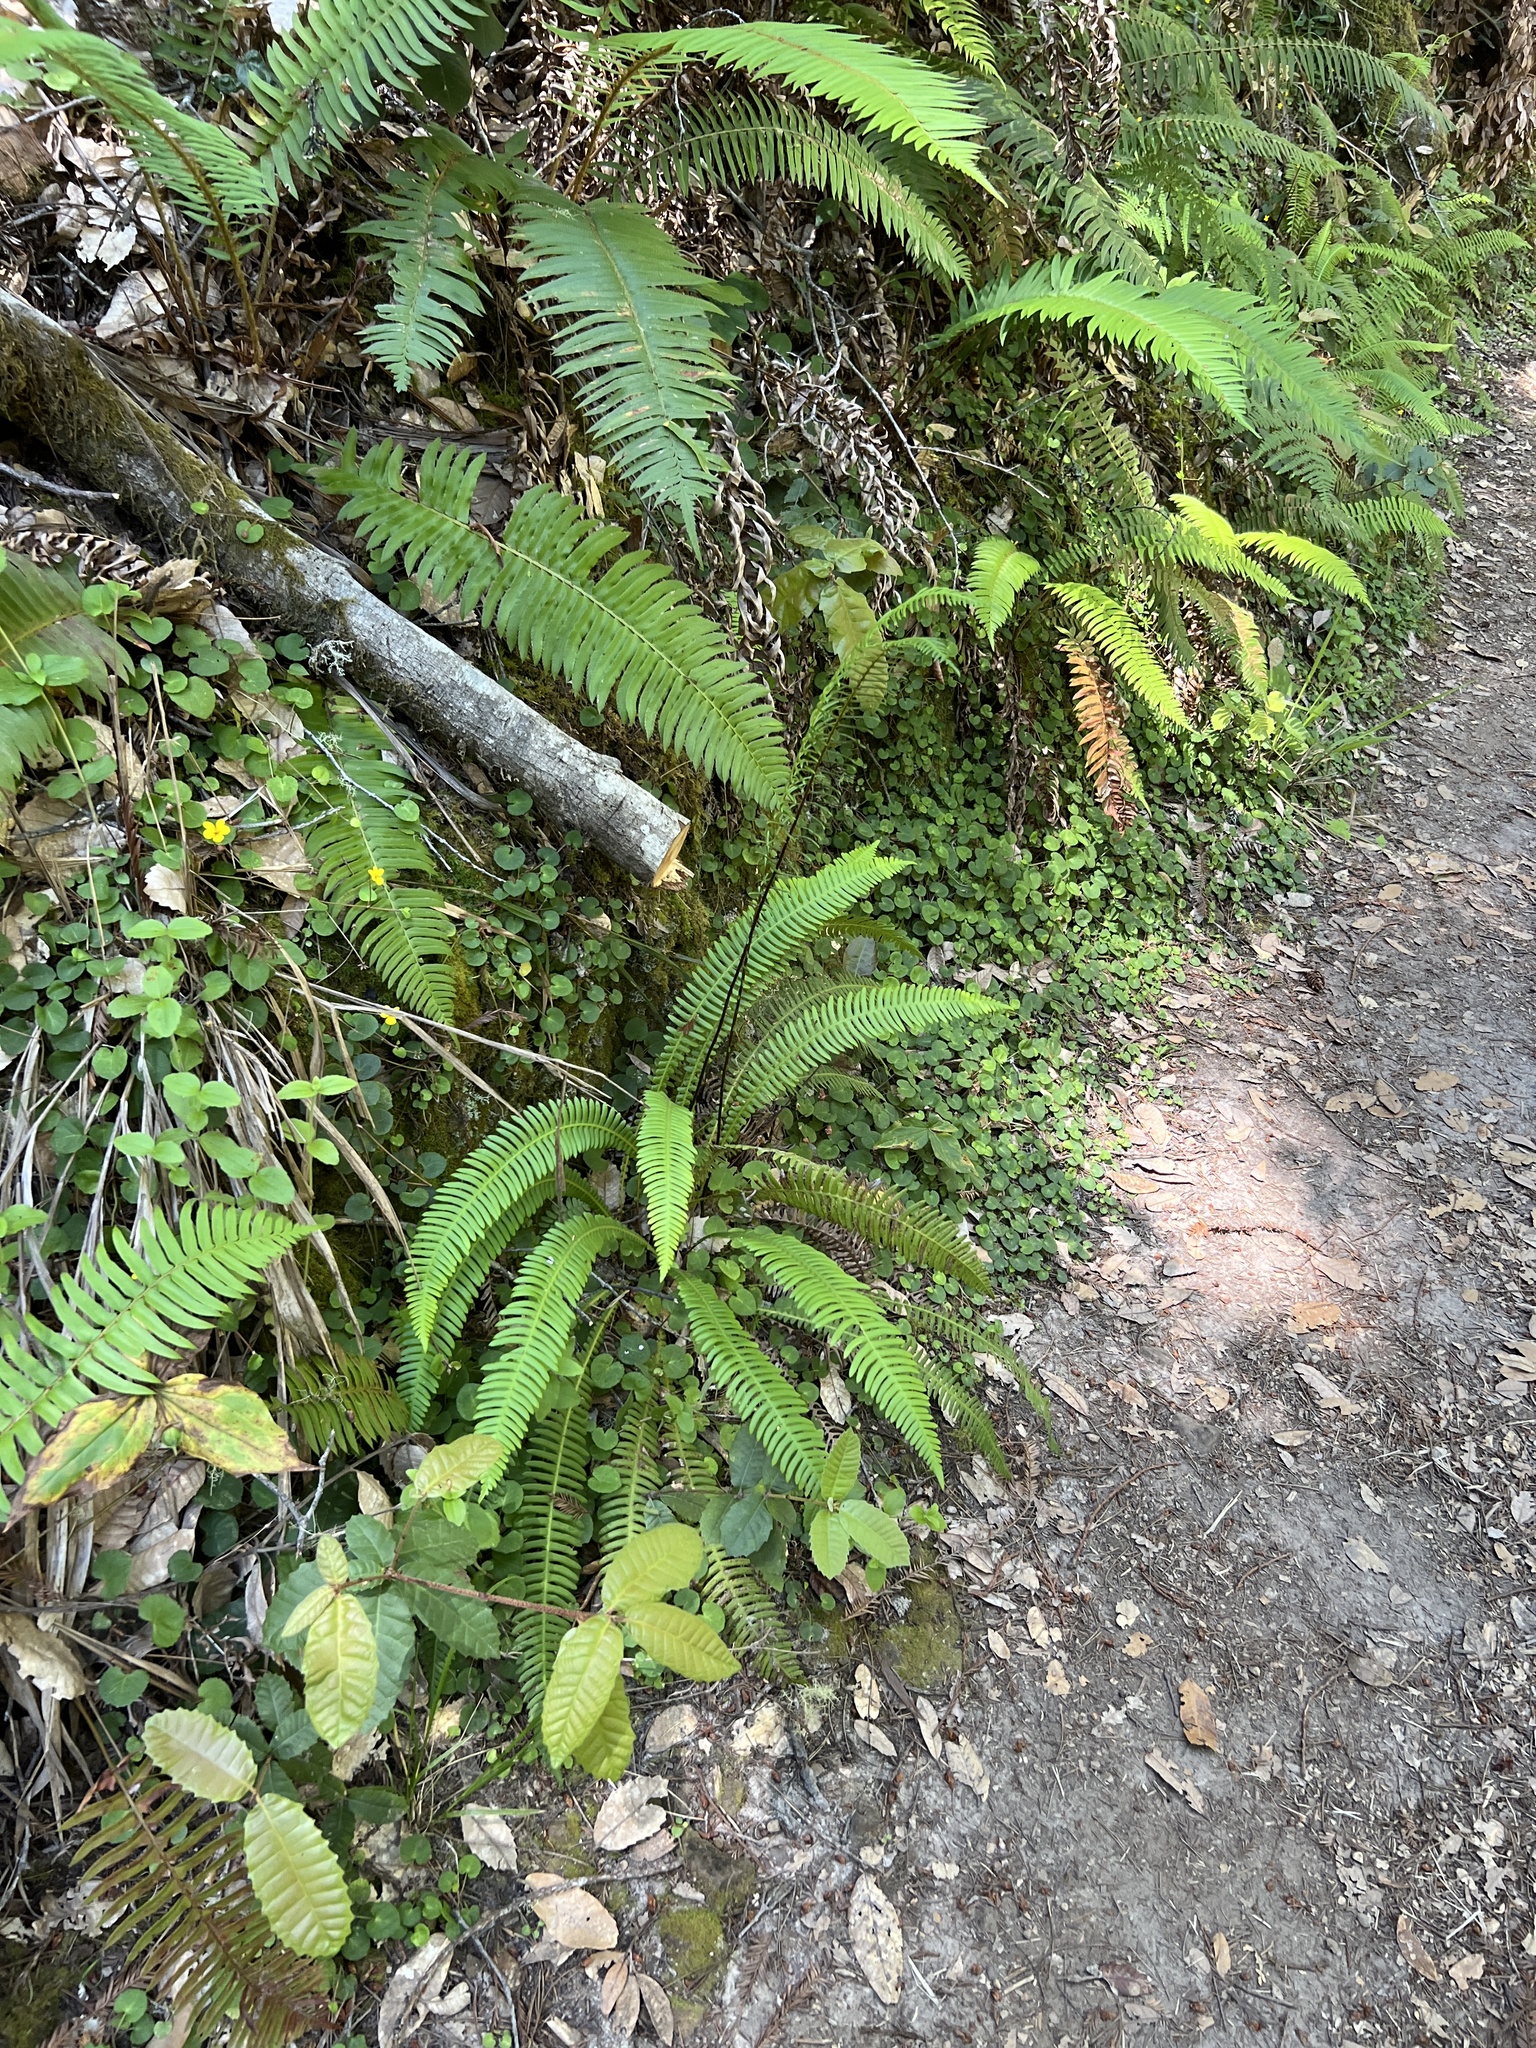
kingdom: Plantae
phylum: Tracheophyta
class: Polypodiopsida
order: Polypodiales
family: Blechnaceae
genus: Struthiopteris
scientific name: Struthiopteris spicant
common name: Deer fern
